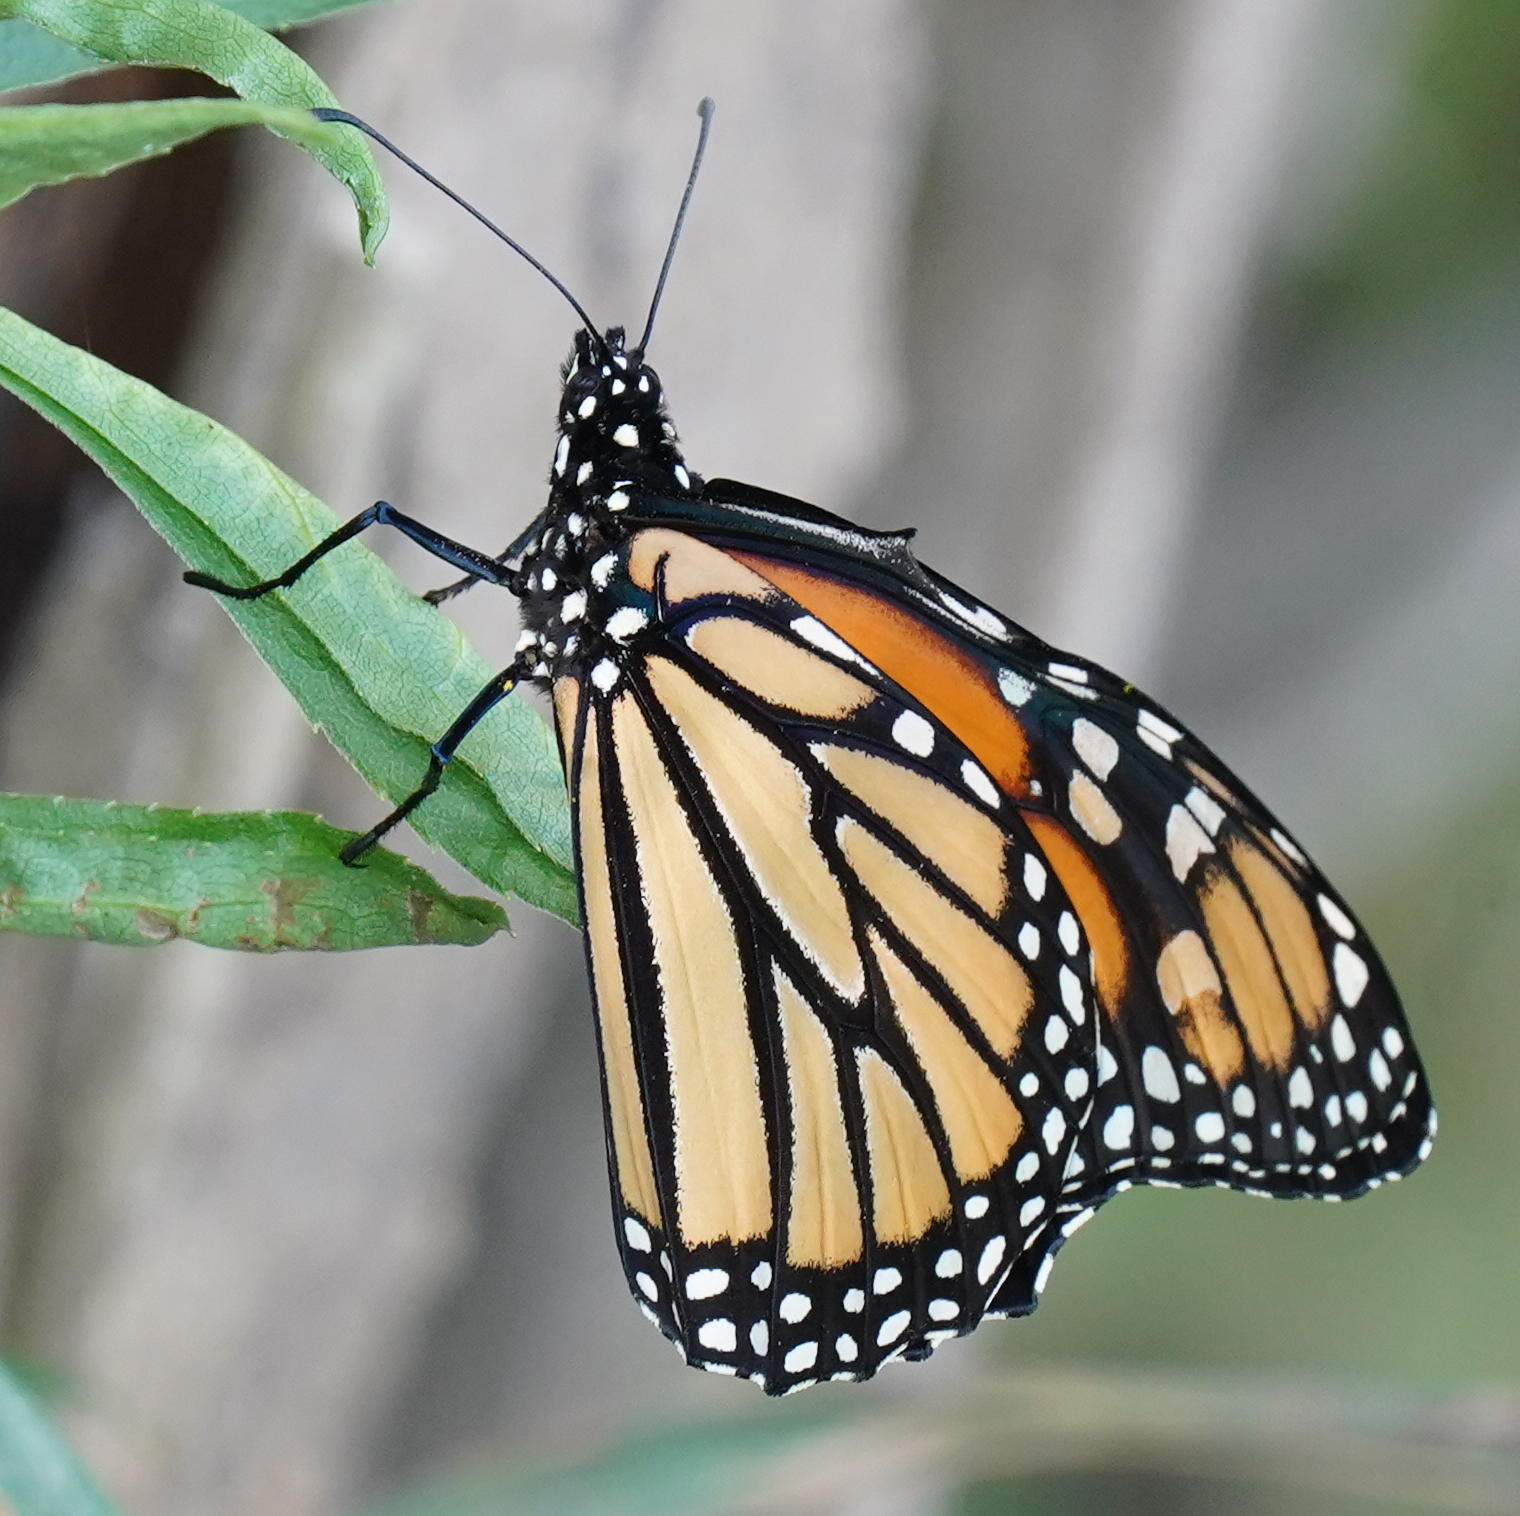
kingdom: Animalia
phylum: Arthropoda
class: Insecta
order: Lepidoptera
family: Nymphalidae
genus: Danaus
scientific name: Danaus plexippus
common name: Monarch
